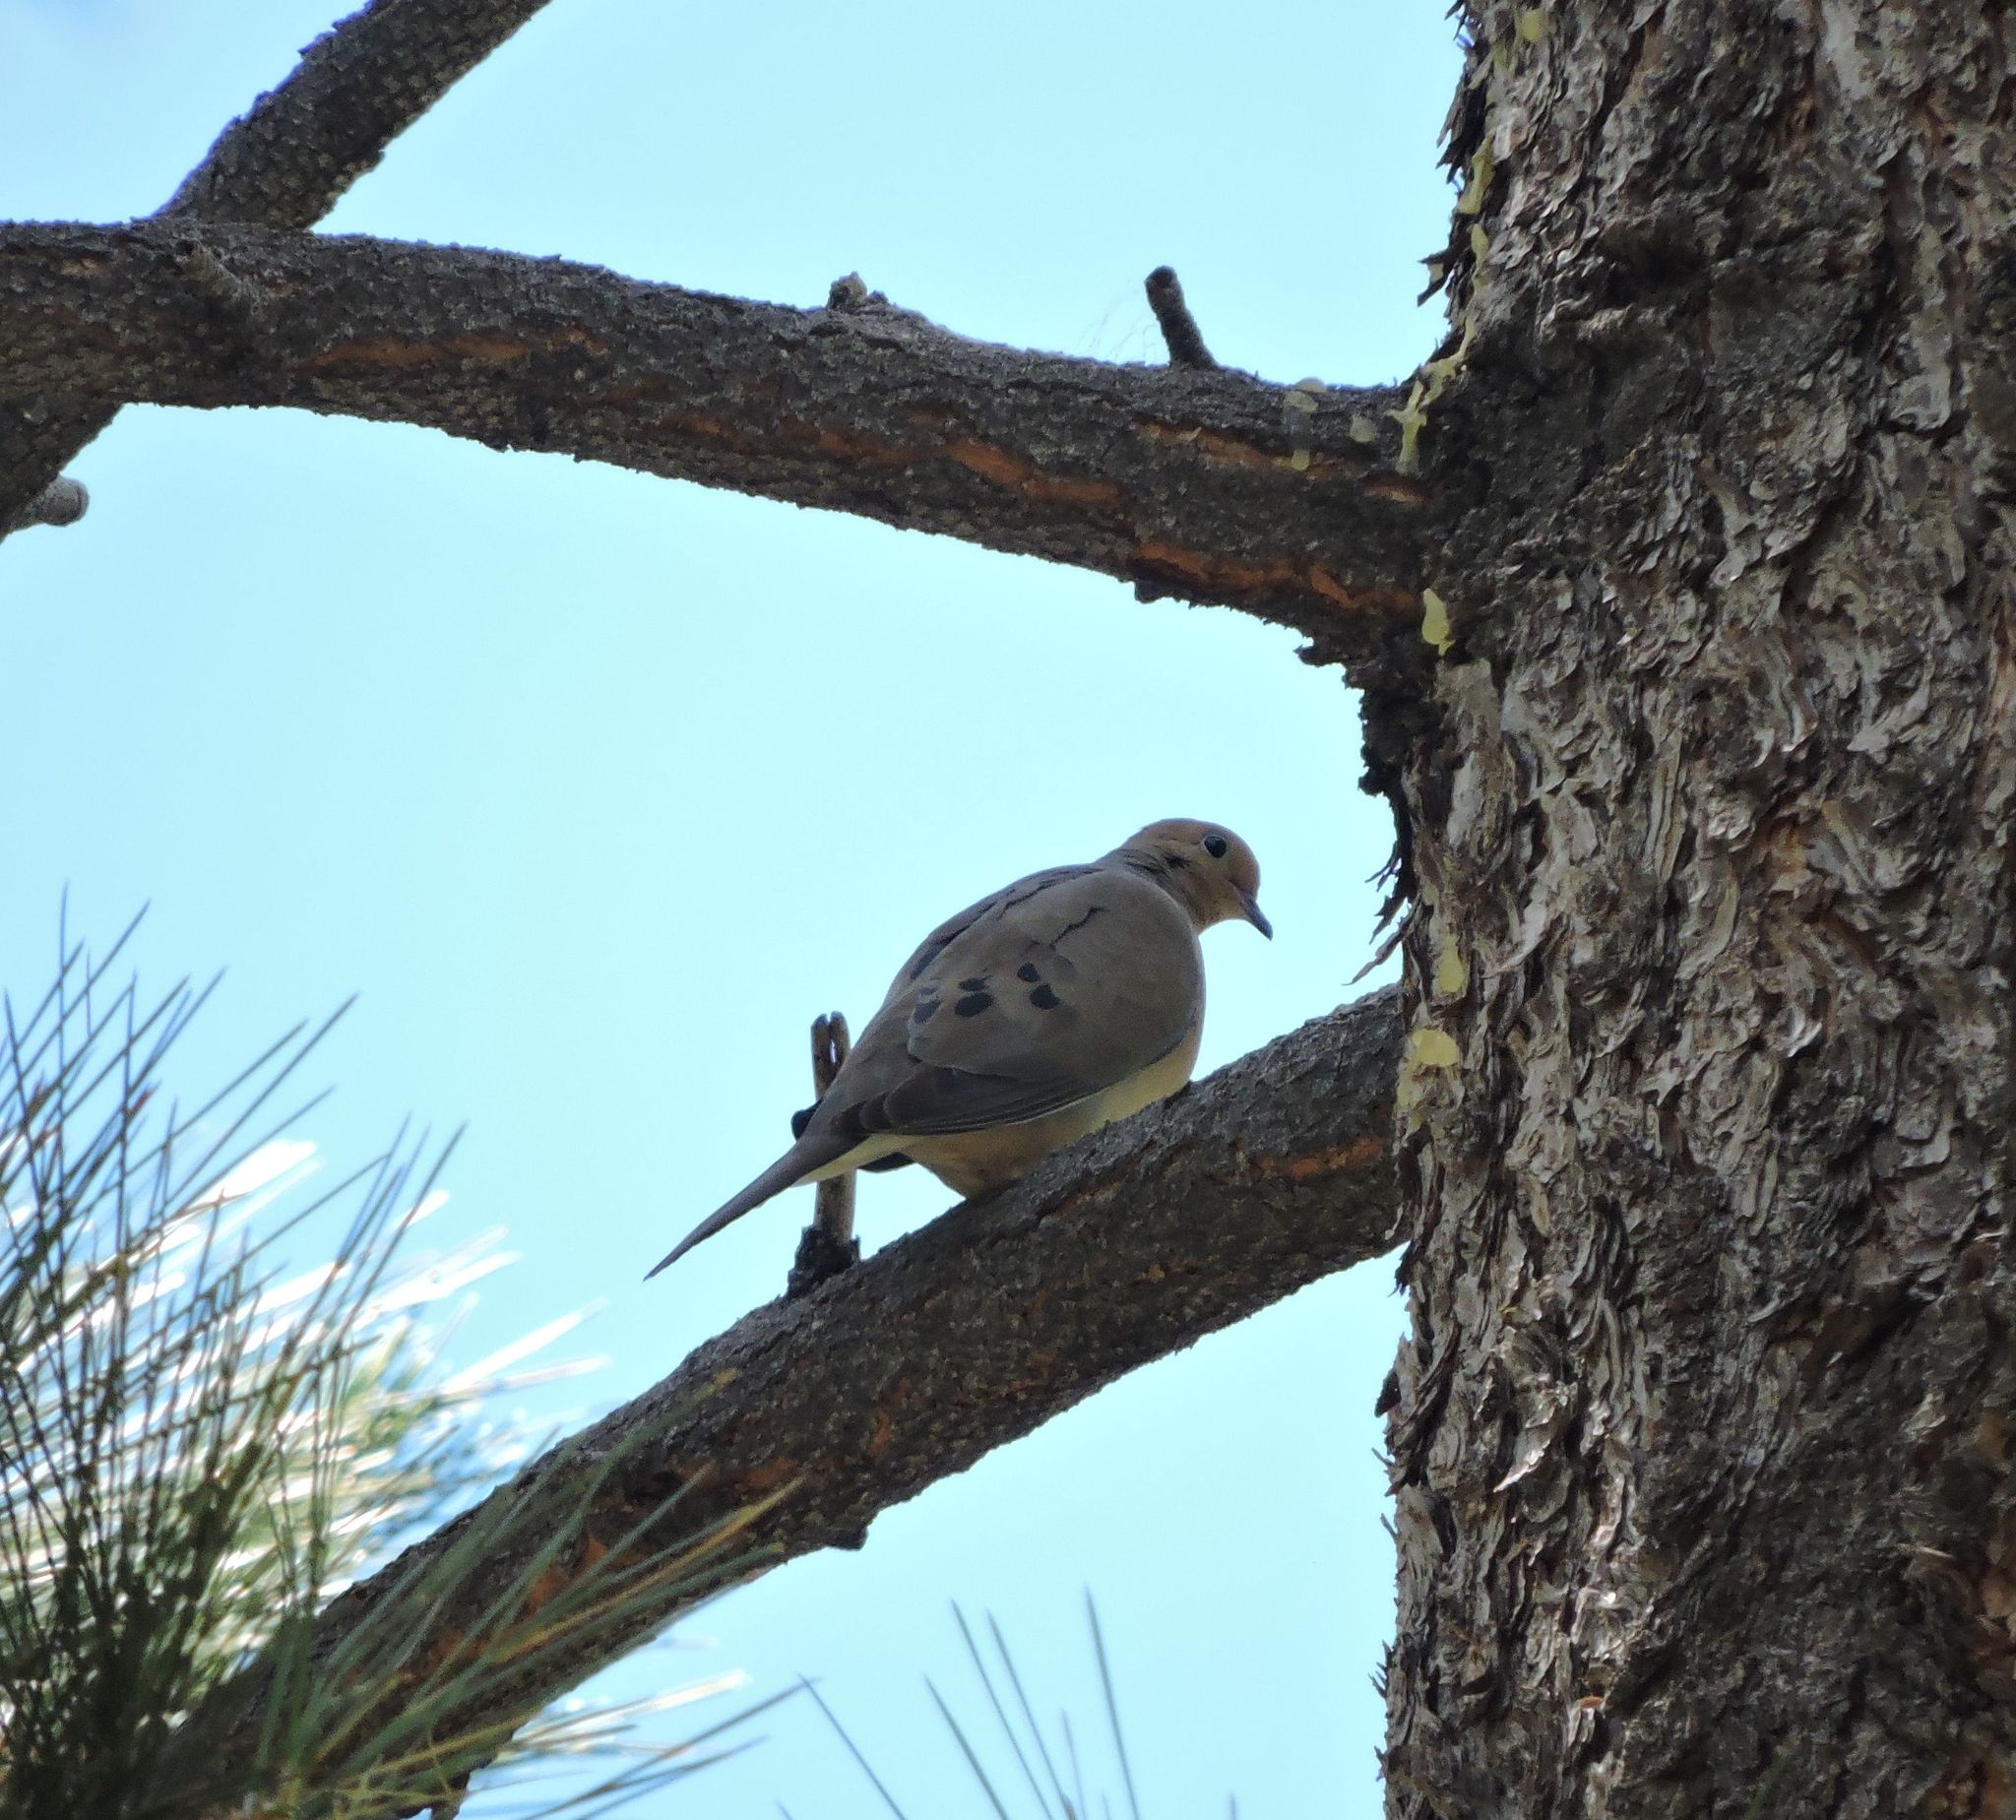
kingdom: Animalia
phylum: Chordata
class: Aves
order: Columbiformes
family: Columbidae
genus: Zenaida
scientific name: Zenaida macroura
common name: Mourning dove
